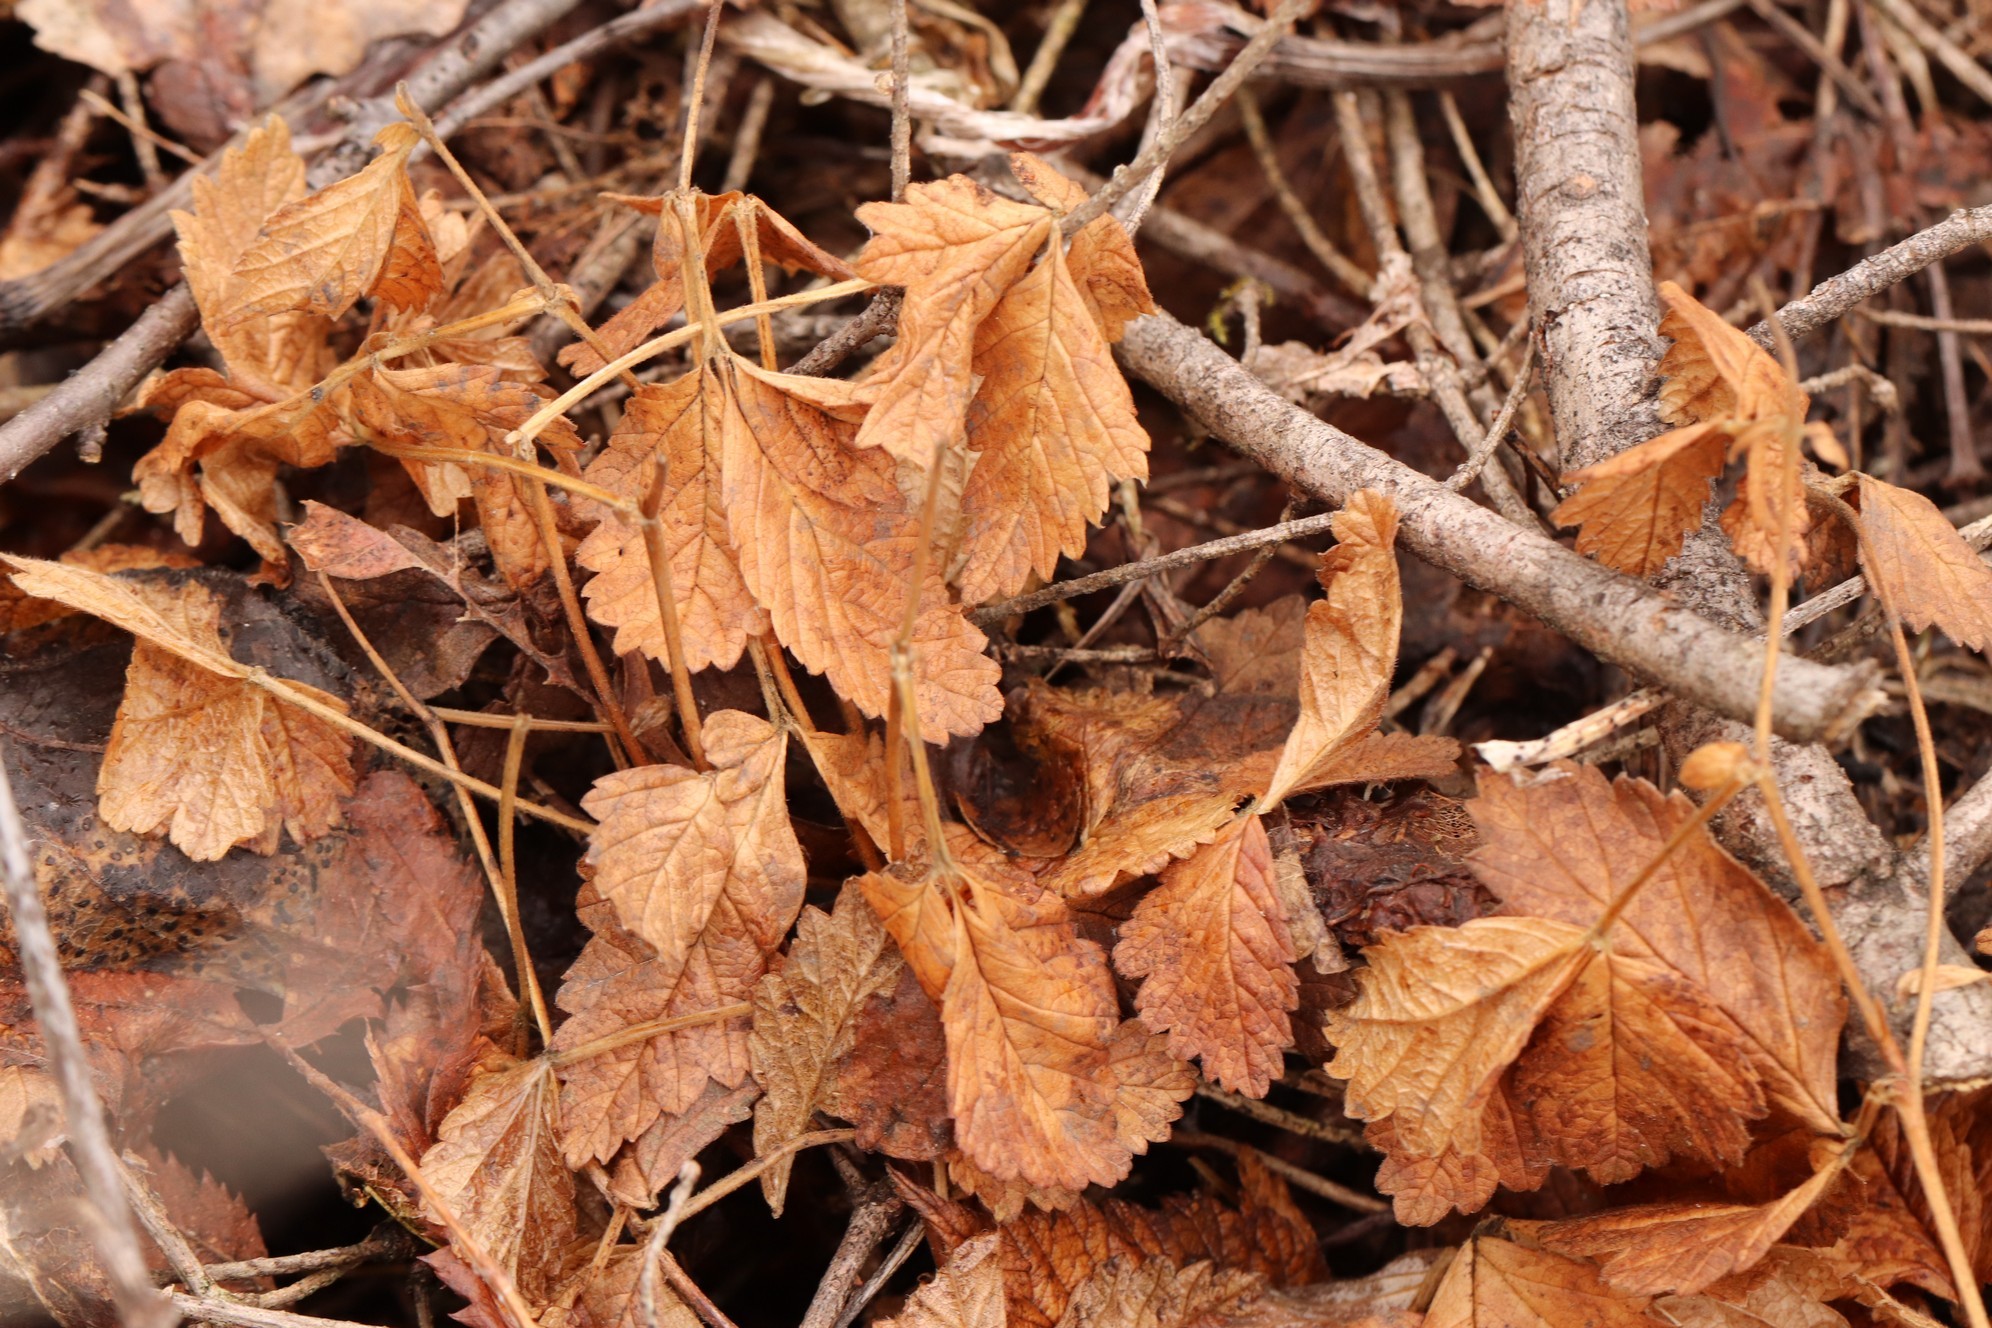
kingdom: Plantae
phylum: Tracheophyta
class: Magnoliopsida
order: Rosales
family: Rosaceae
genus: Rubus
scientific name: Rubus arcticus
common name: Arctic bramble
